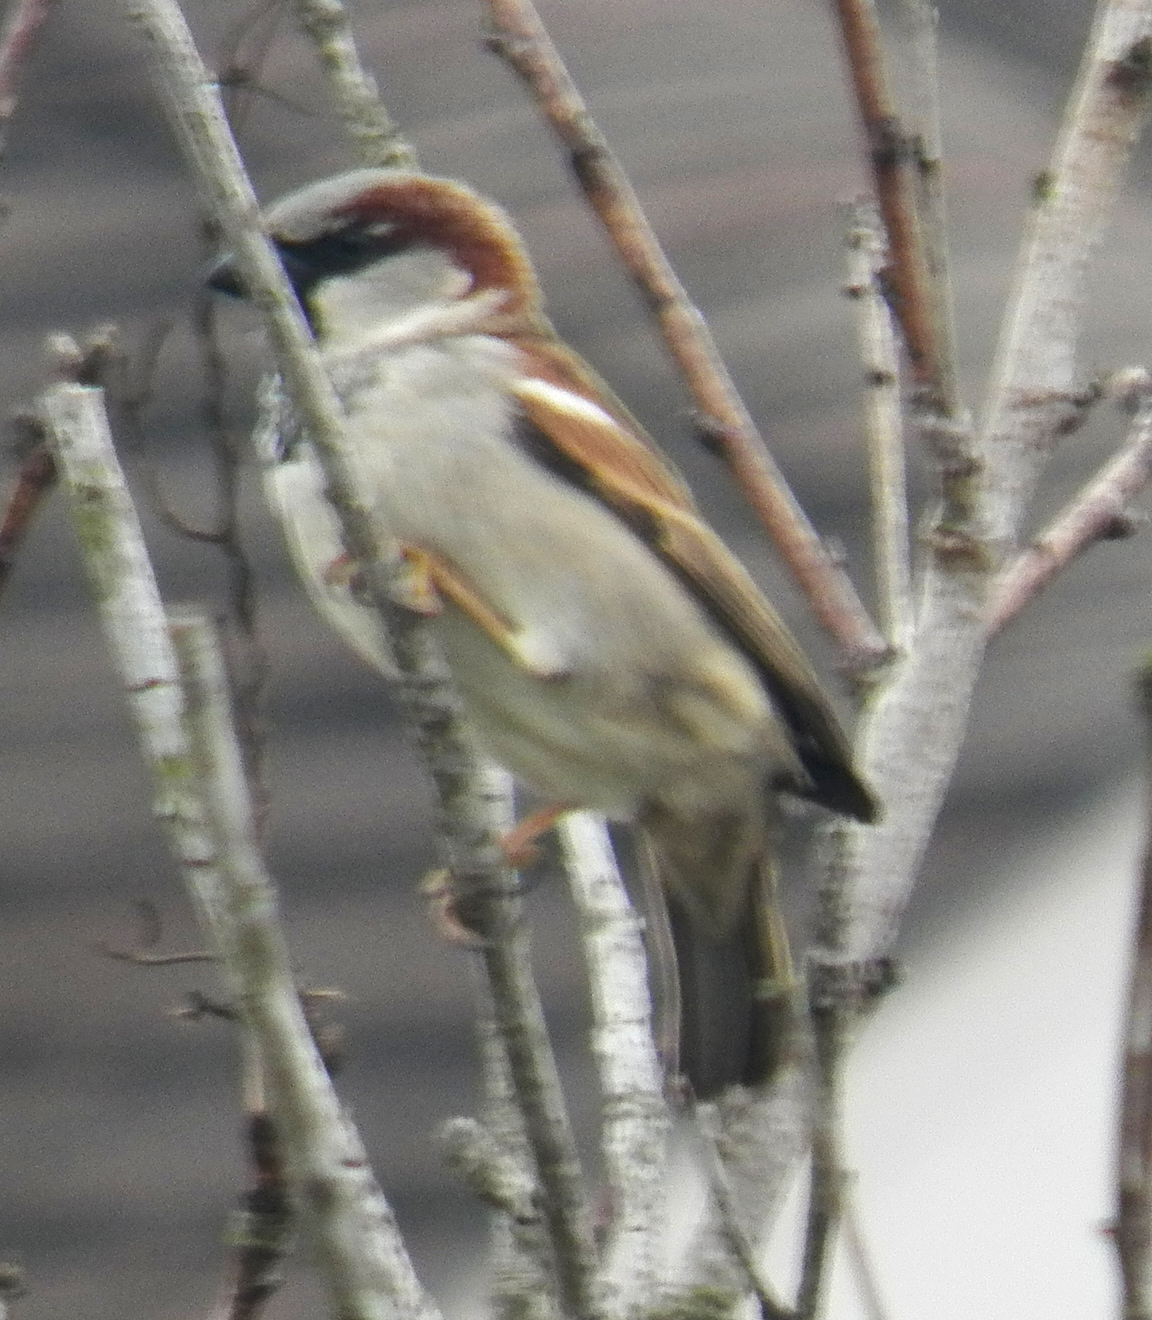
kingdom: Animalia
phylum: Chordata
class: Aves
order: Passeriformes
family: Passeridae
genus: Passer
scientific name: Passer domesticus
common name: House sparrow
